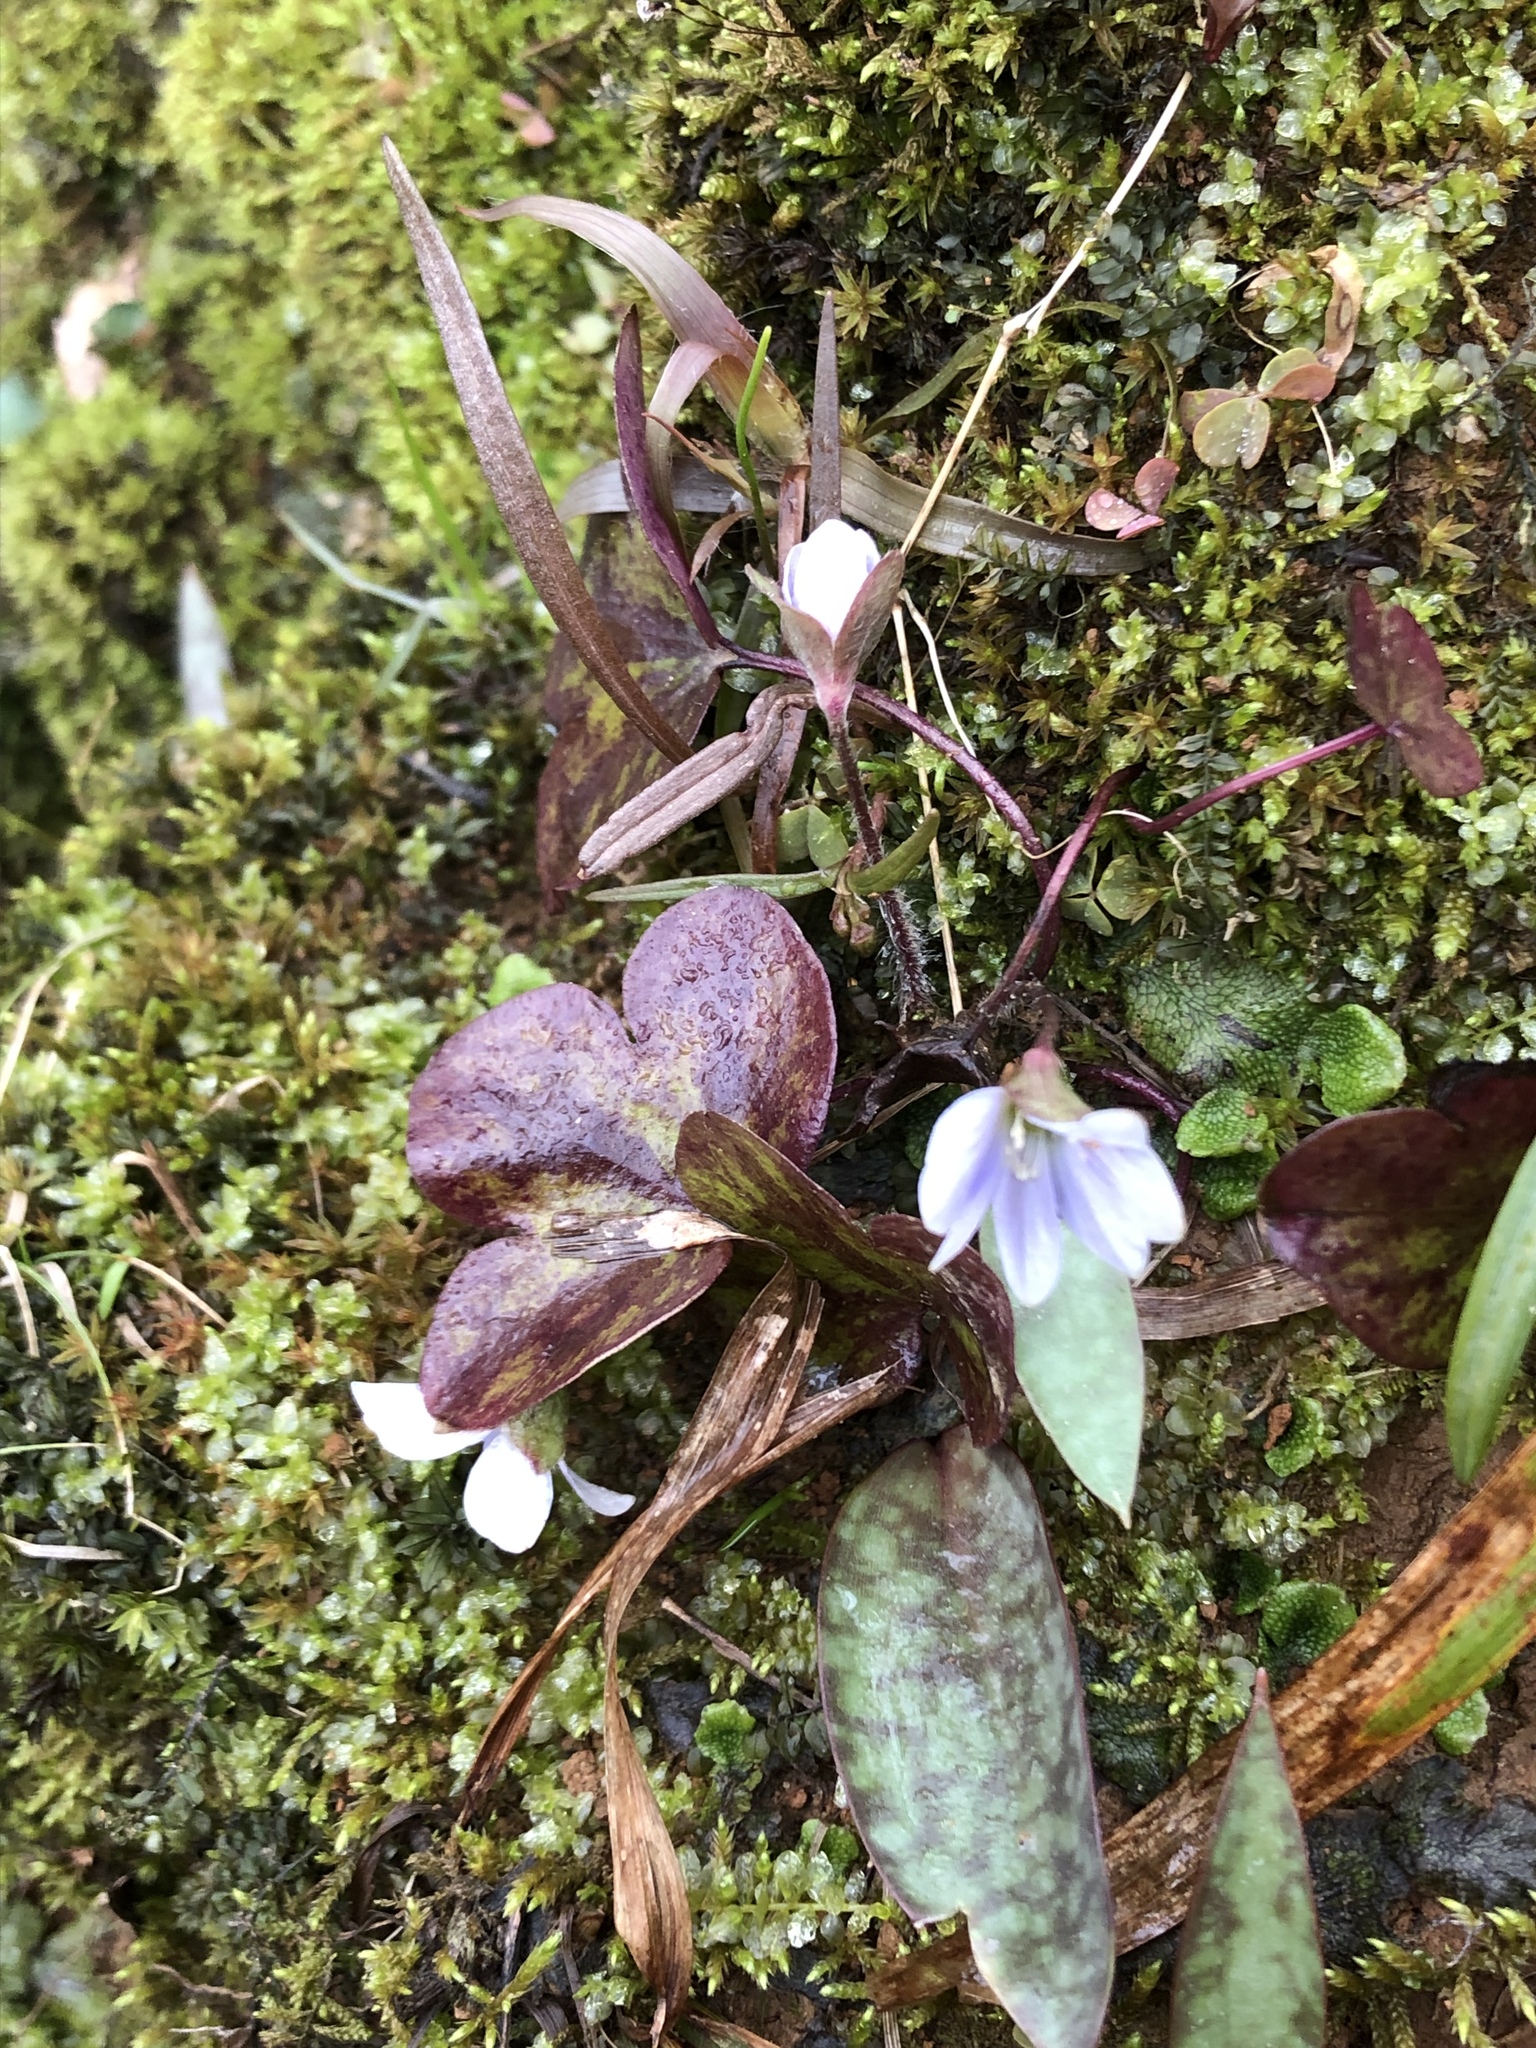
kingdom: Plantae
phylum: Tracheophyta
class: Magnoliopsida
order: Ranunculales
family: Ranunculaceae
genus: Hepatica
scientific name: Hepatica americana
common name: American hepatica
